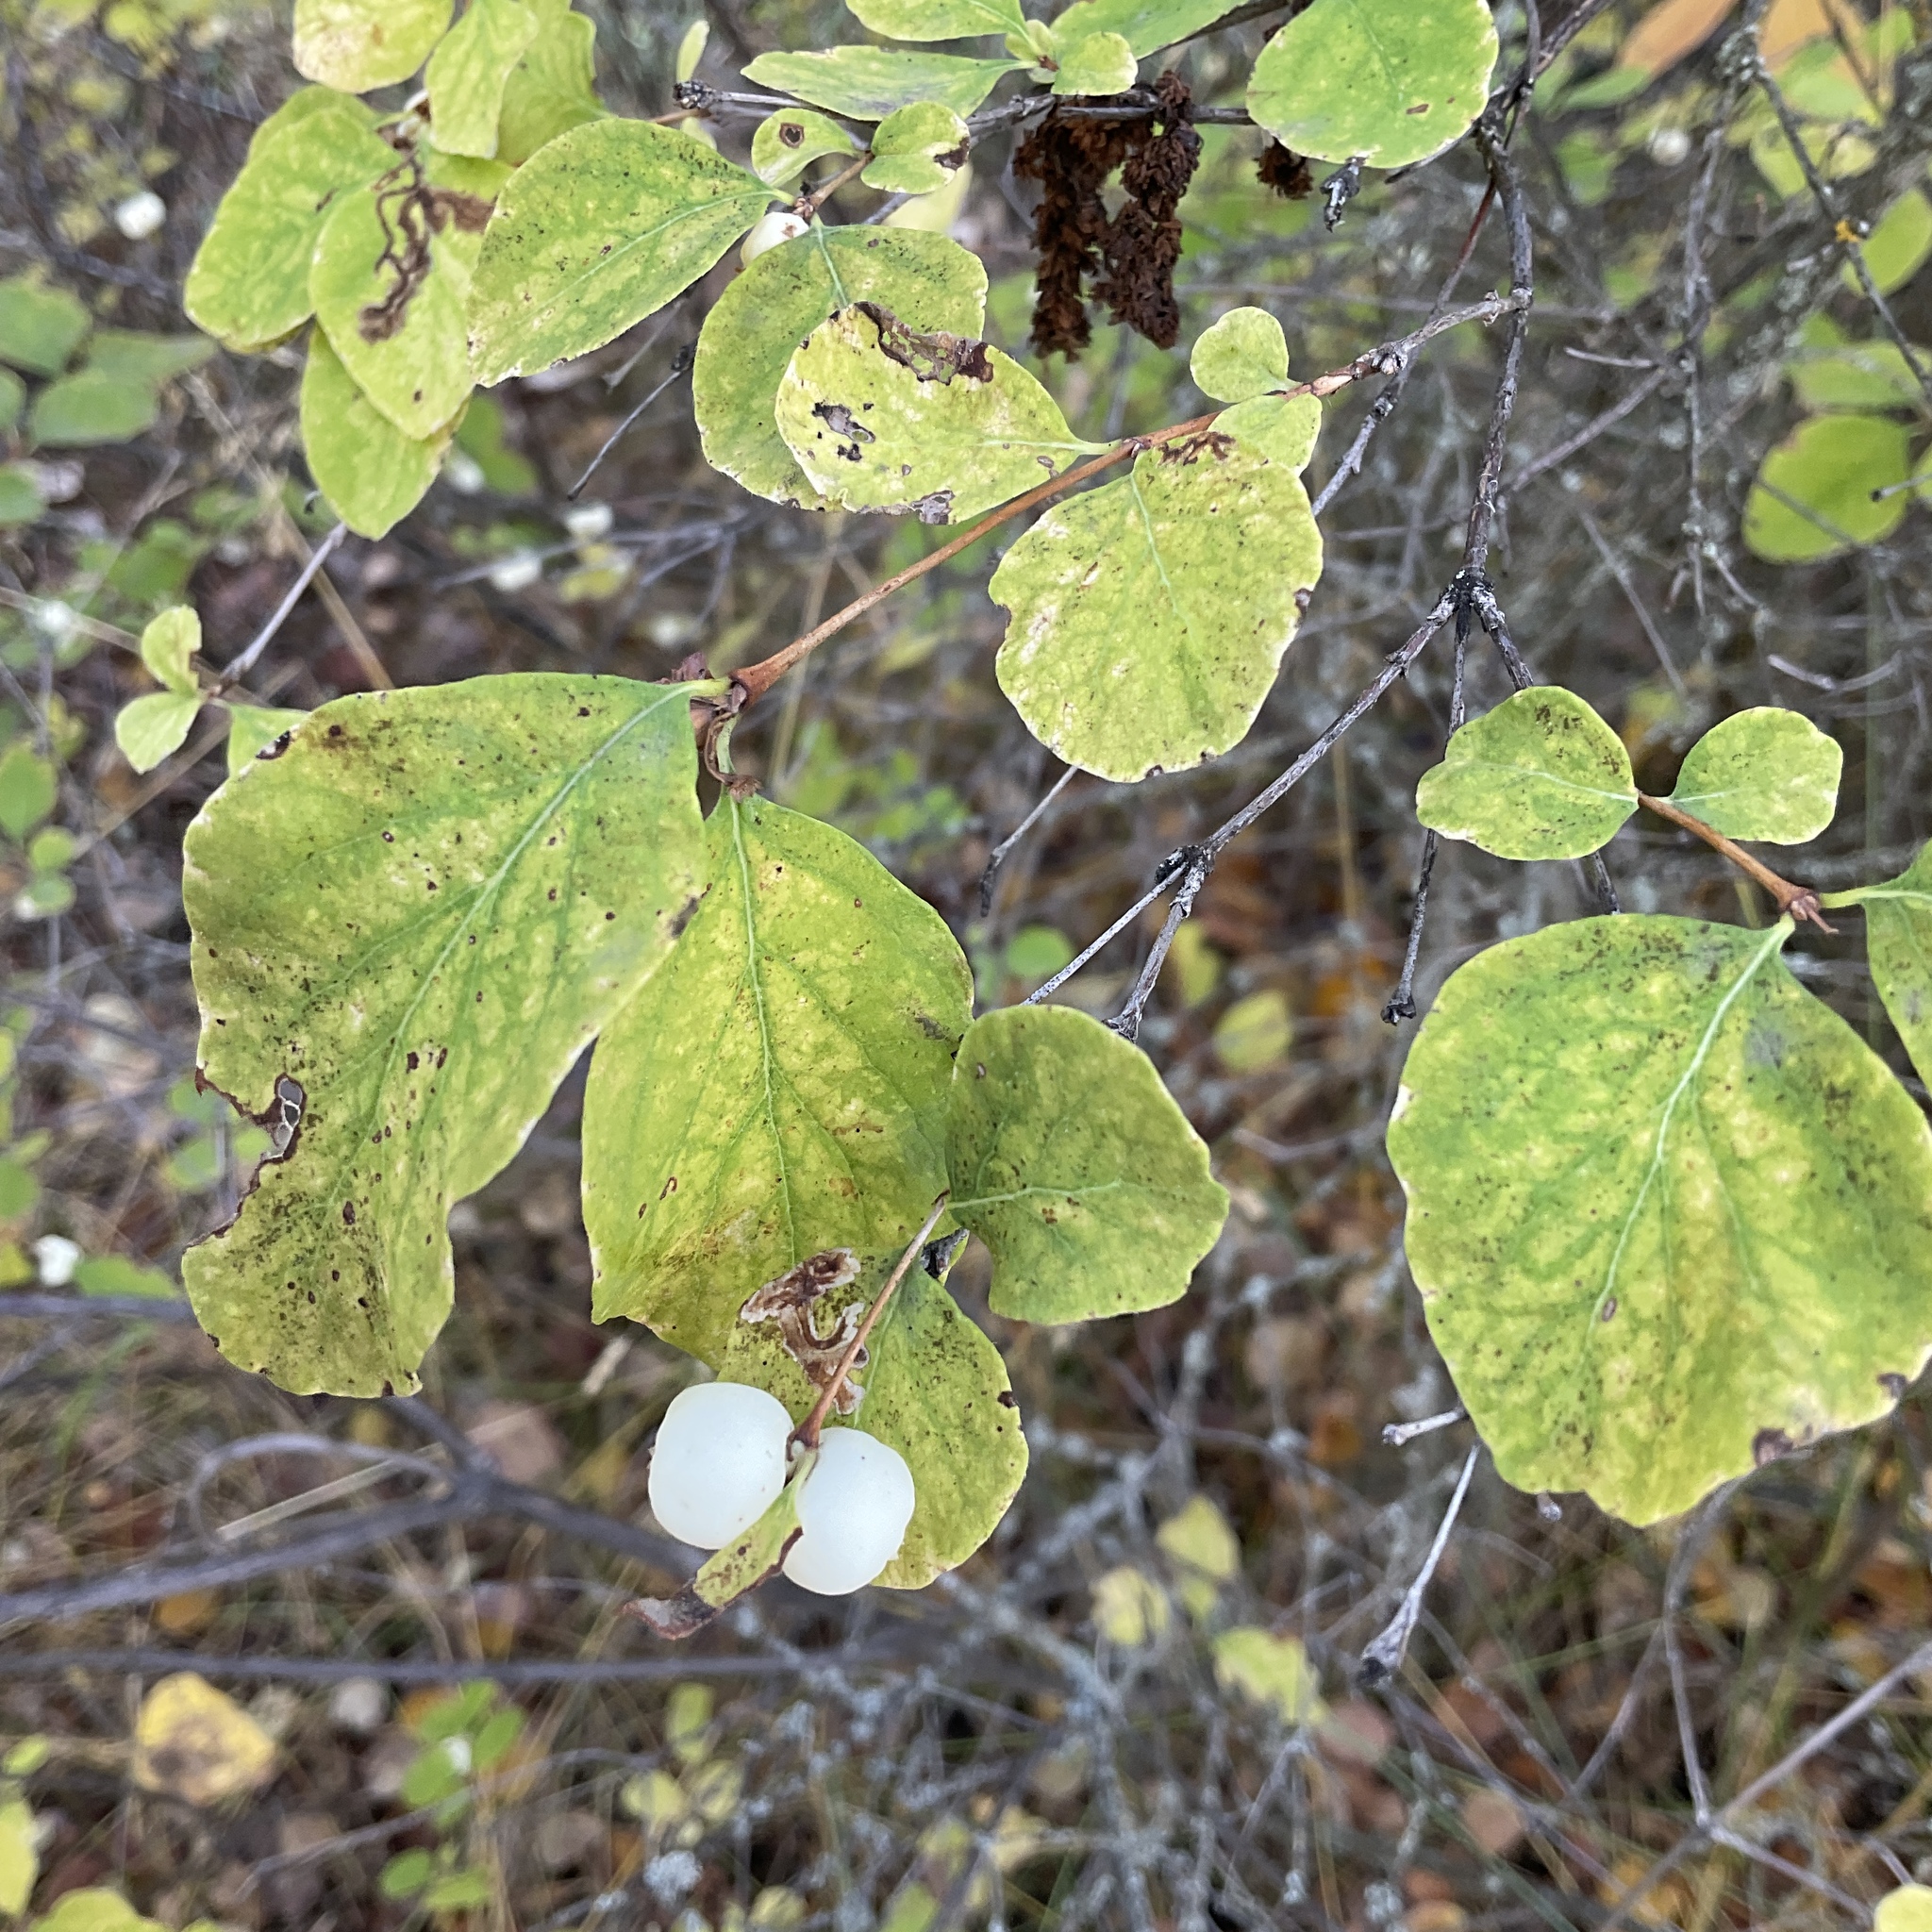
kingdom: Plantae
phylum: Tracheophyta
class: Magnoliopsida
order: Dipsacales
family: Caprifoliaceae
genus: Symphoricarpos
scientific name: Symphoricarpos albus
